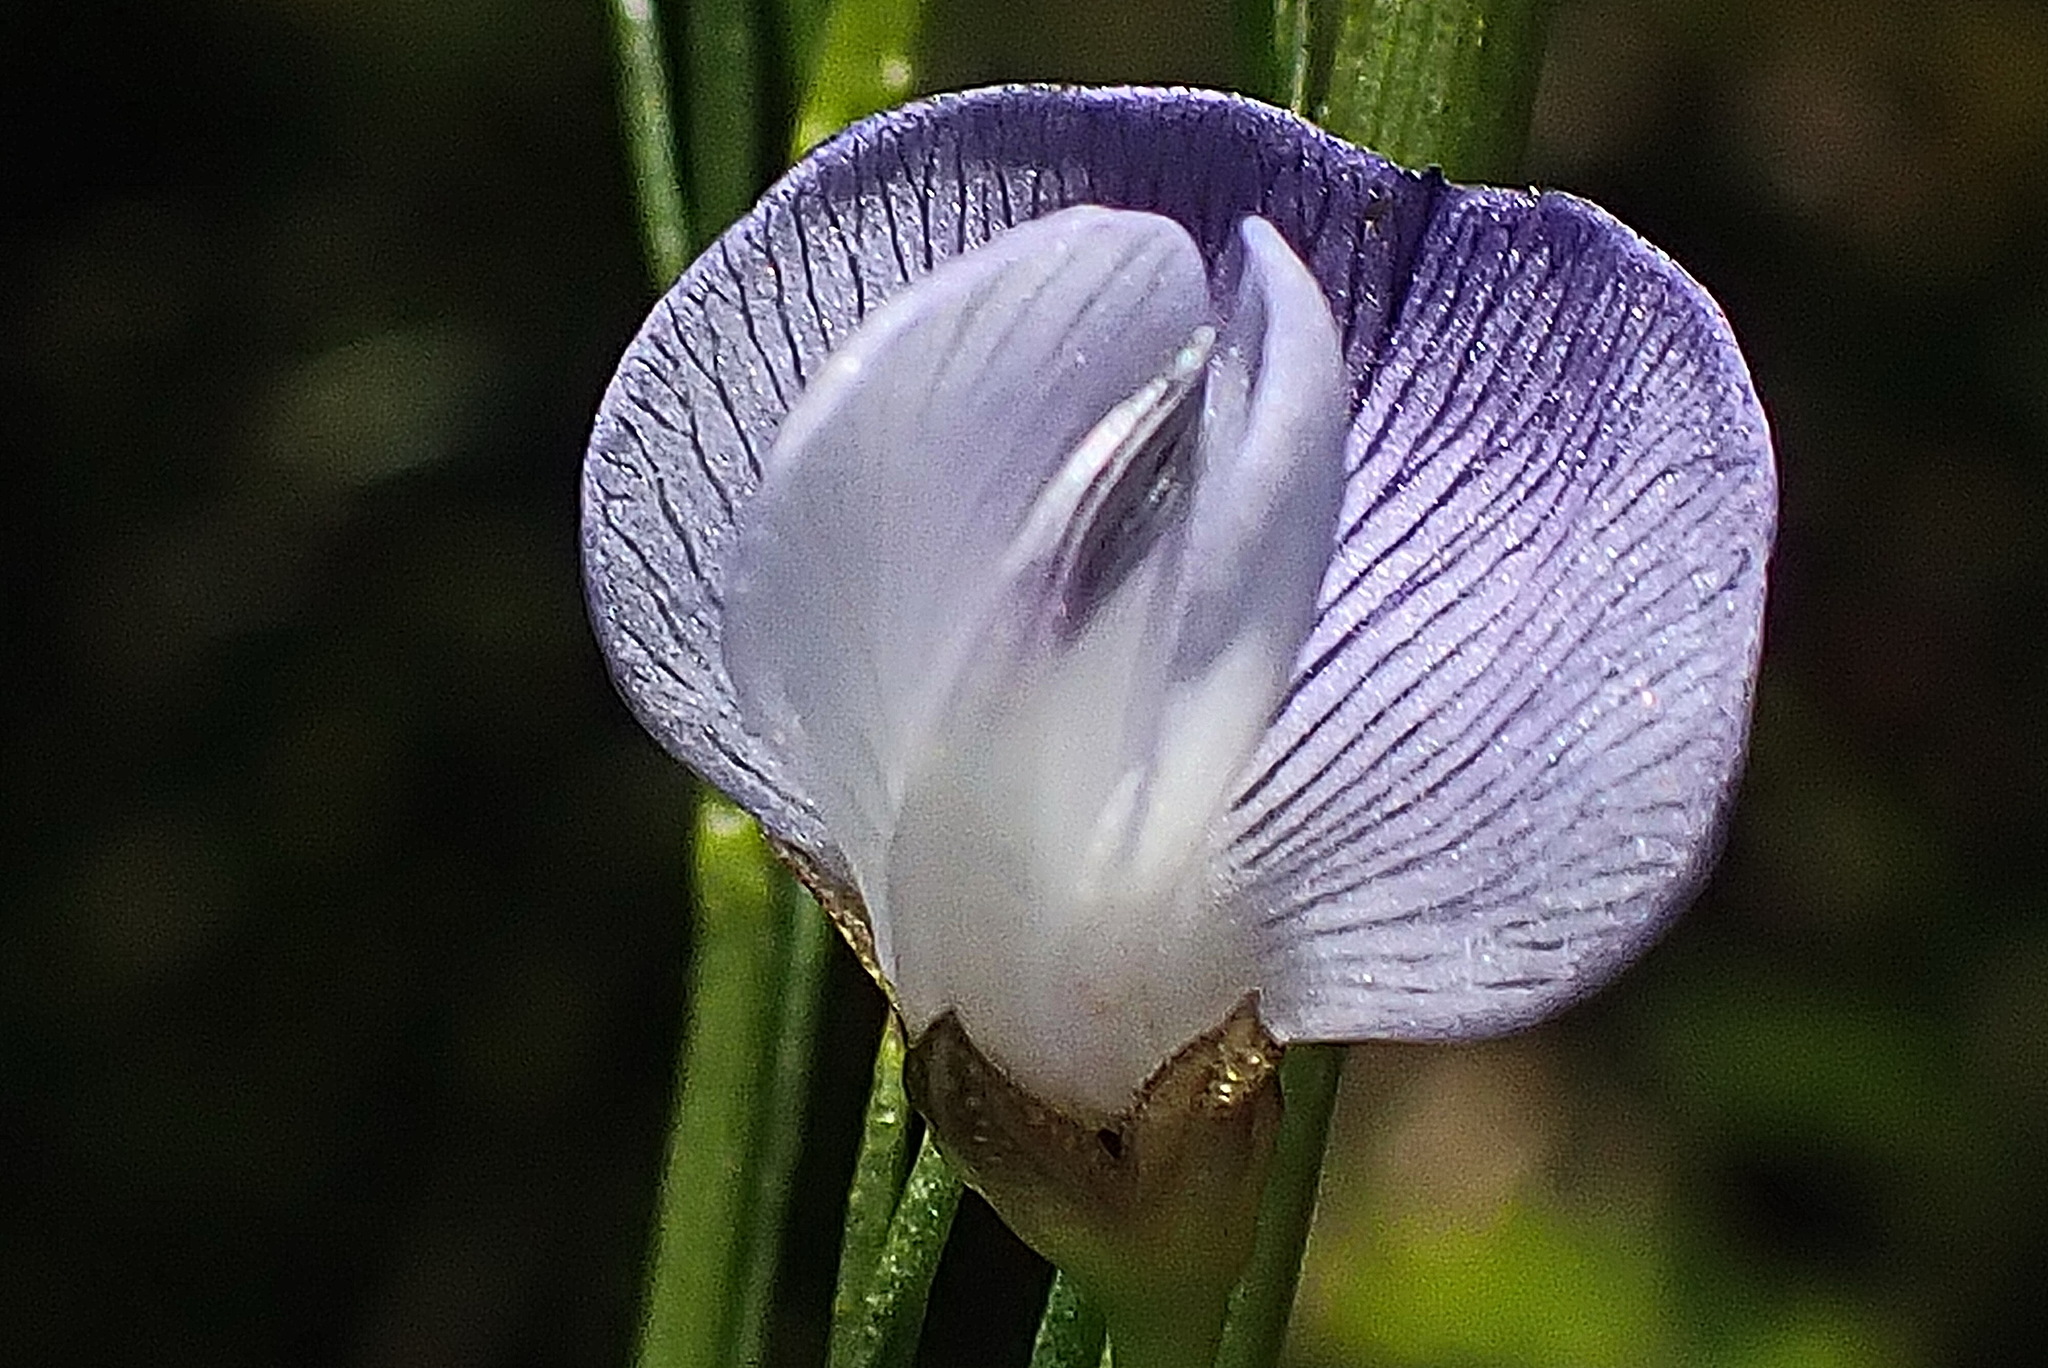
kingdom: Plantae
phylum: Tracheophyta
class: Magnoliopsida
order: Fabales
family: Fabaceae
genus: Psoralea
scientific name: Psoralea diturnerae
